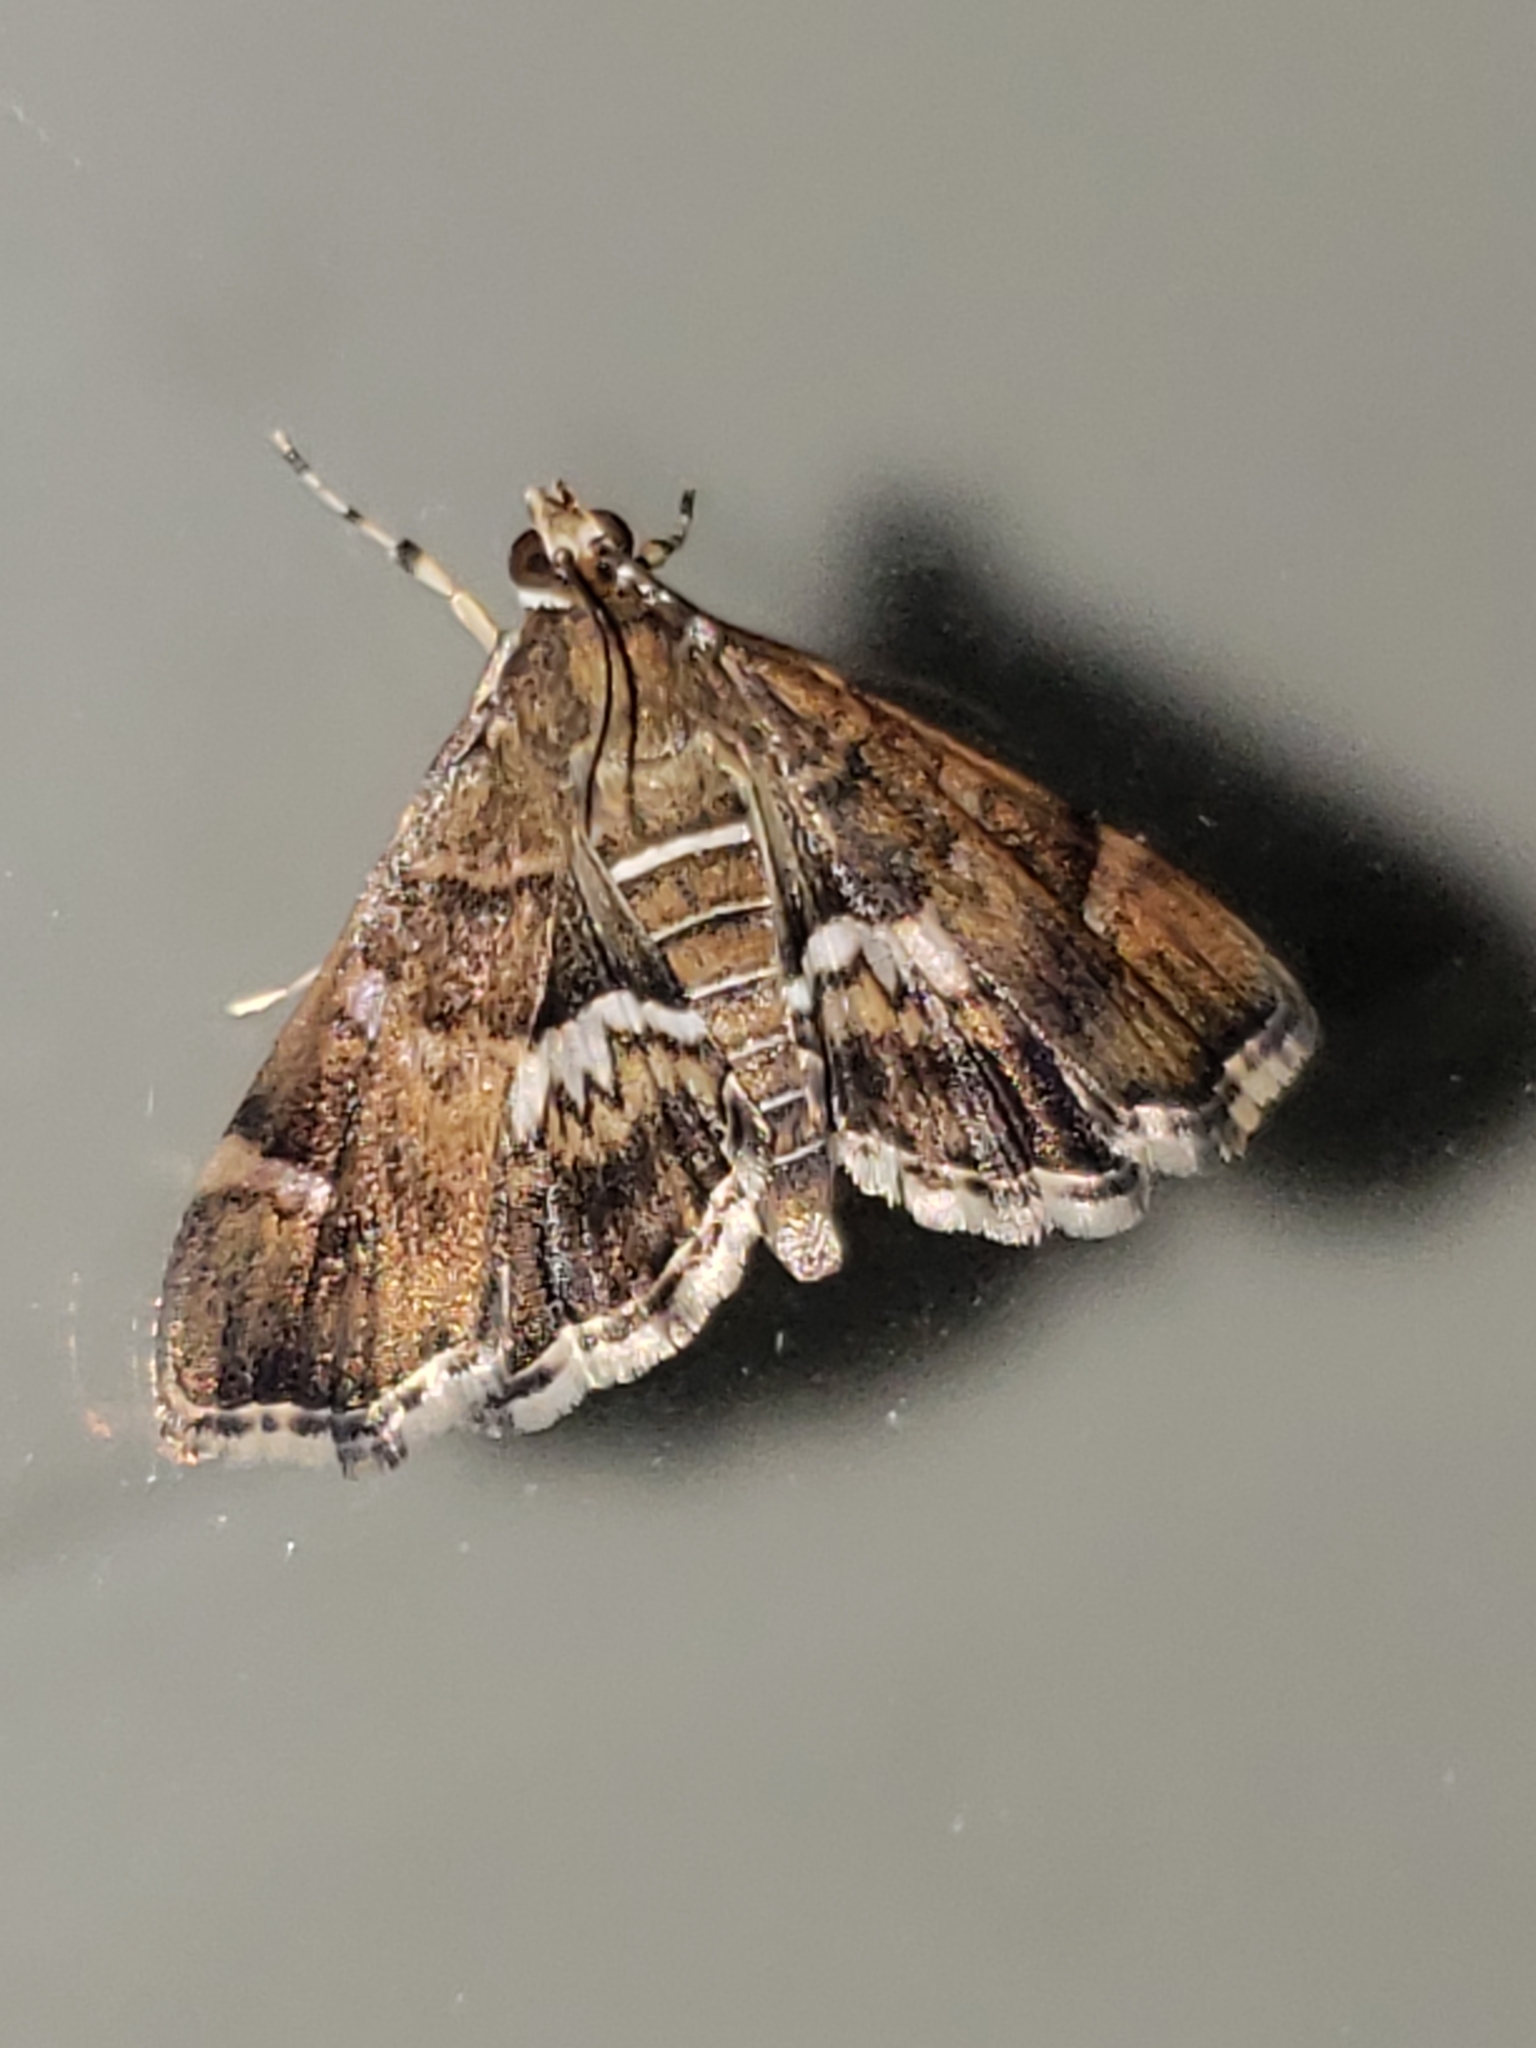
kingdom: Animalia
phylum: Arthropoda
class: Insecta
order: Lepidoptera
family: Crambidae
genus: Hymenia
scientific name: Hymenia perspectalis
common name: Spotted beet webworm
